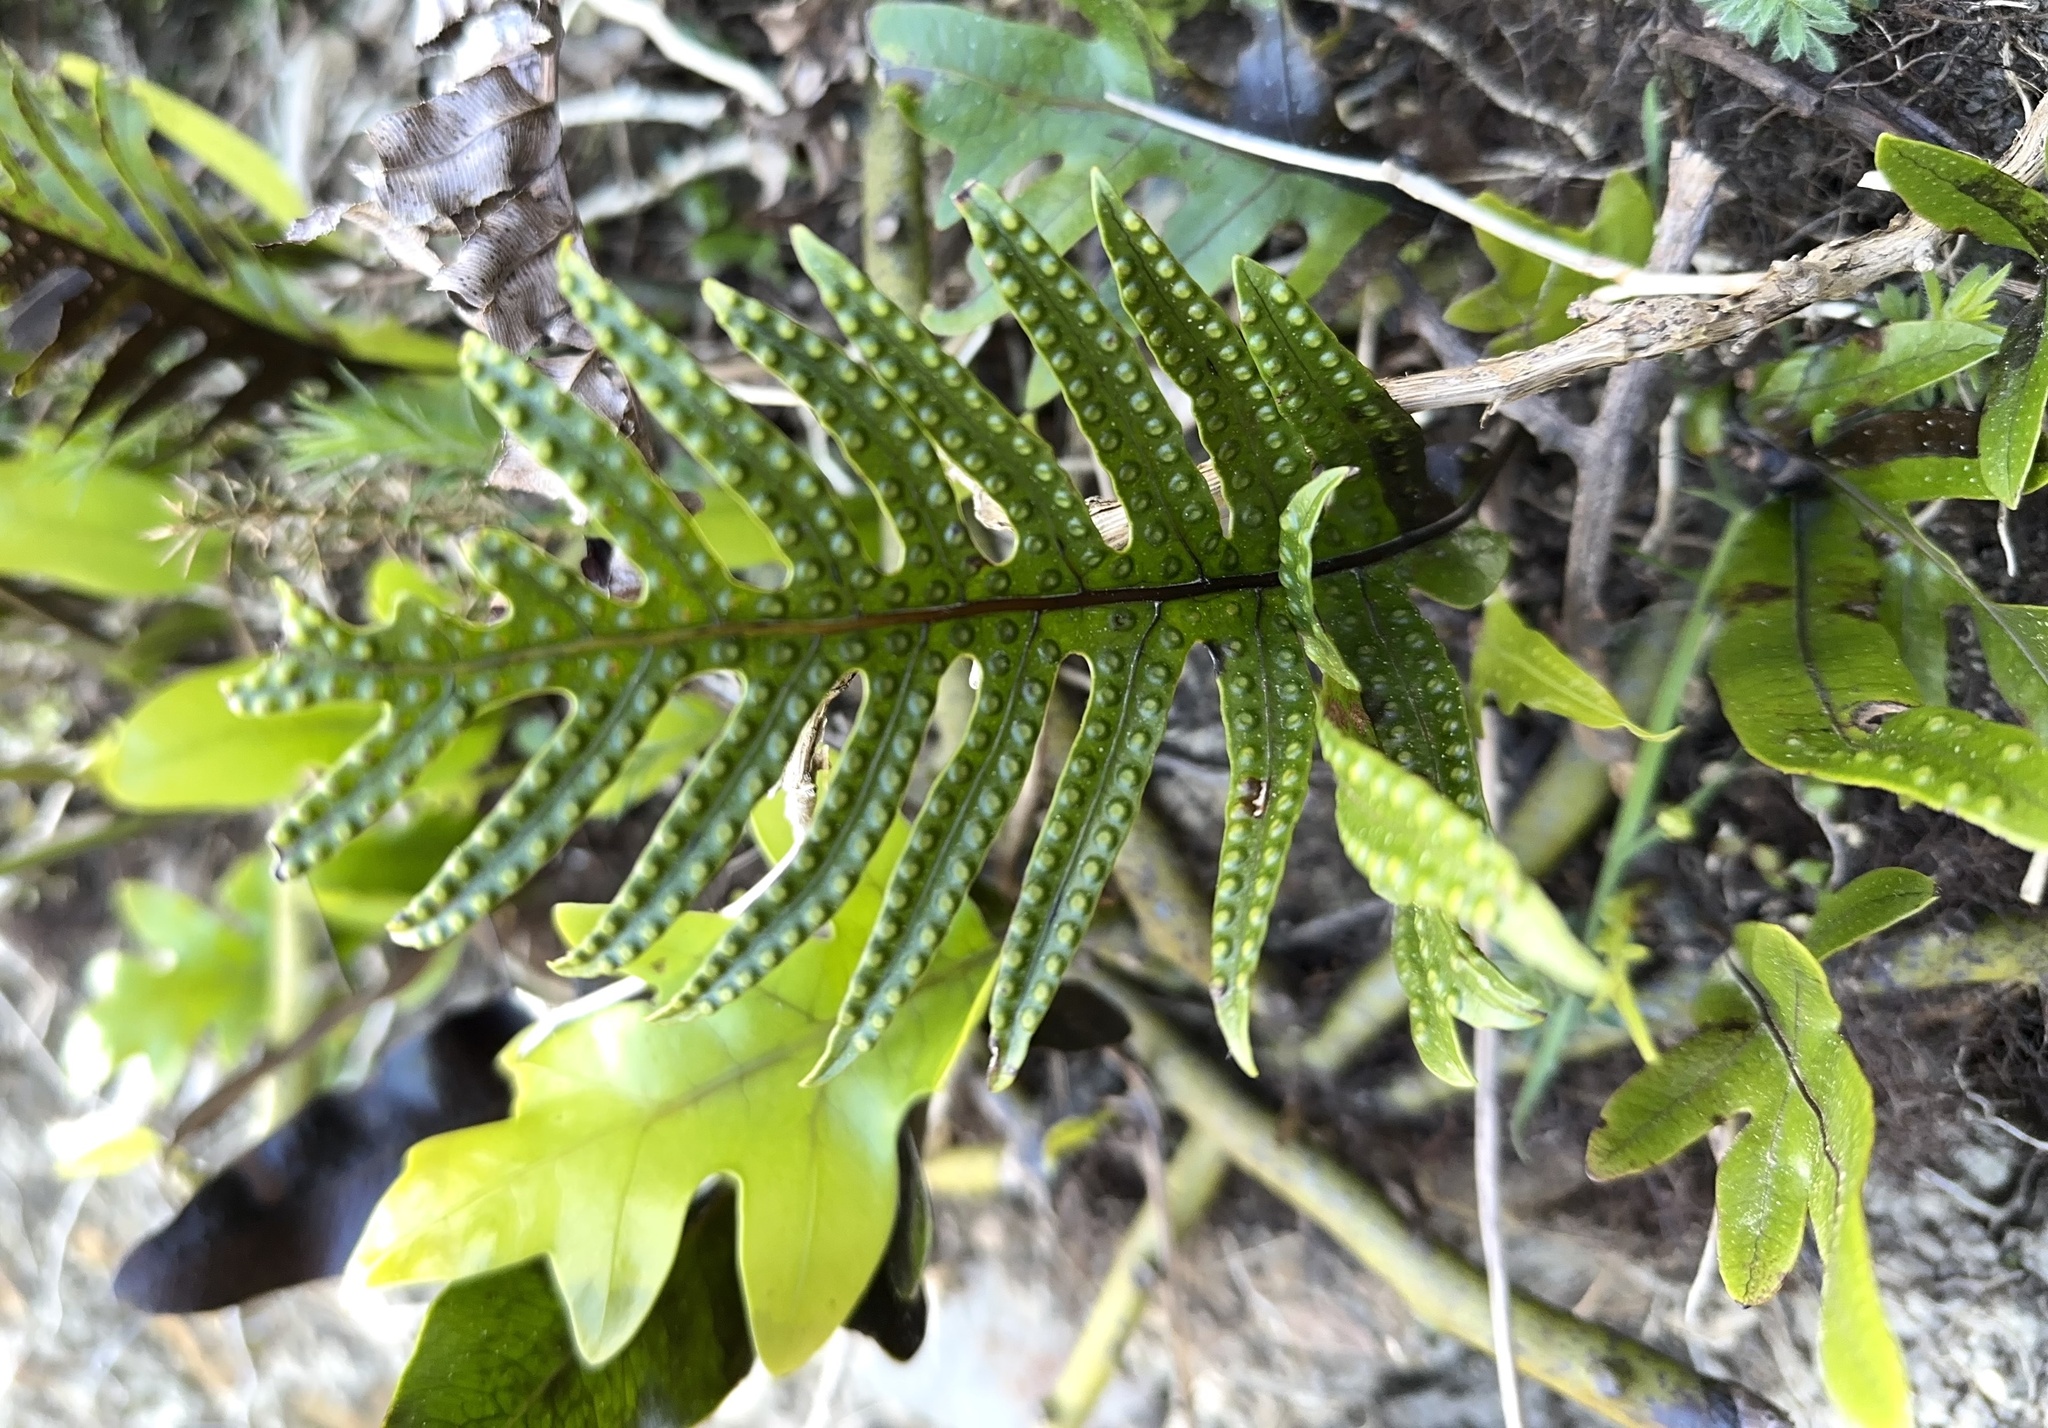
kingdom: Plantae
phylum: Tracheophyta
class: Polypodiopsida
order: Polypodiales
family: Polypodiaceae
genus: Lecanopteris
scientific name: Lecanopteris pustulata
